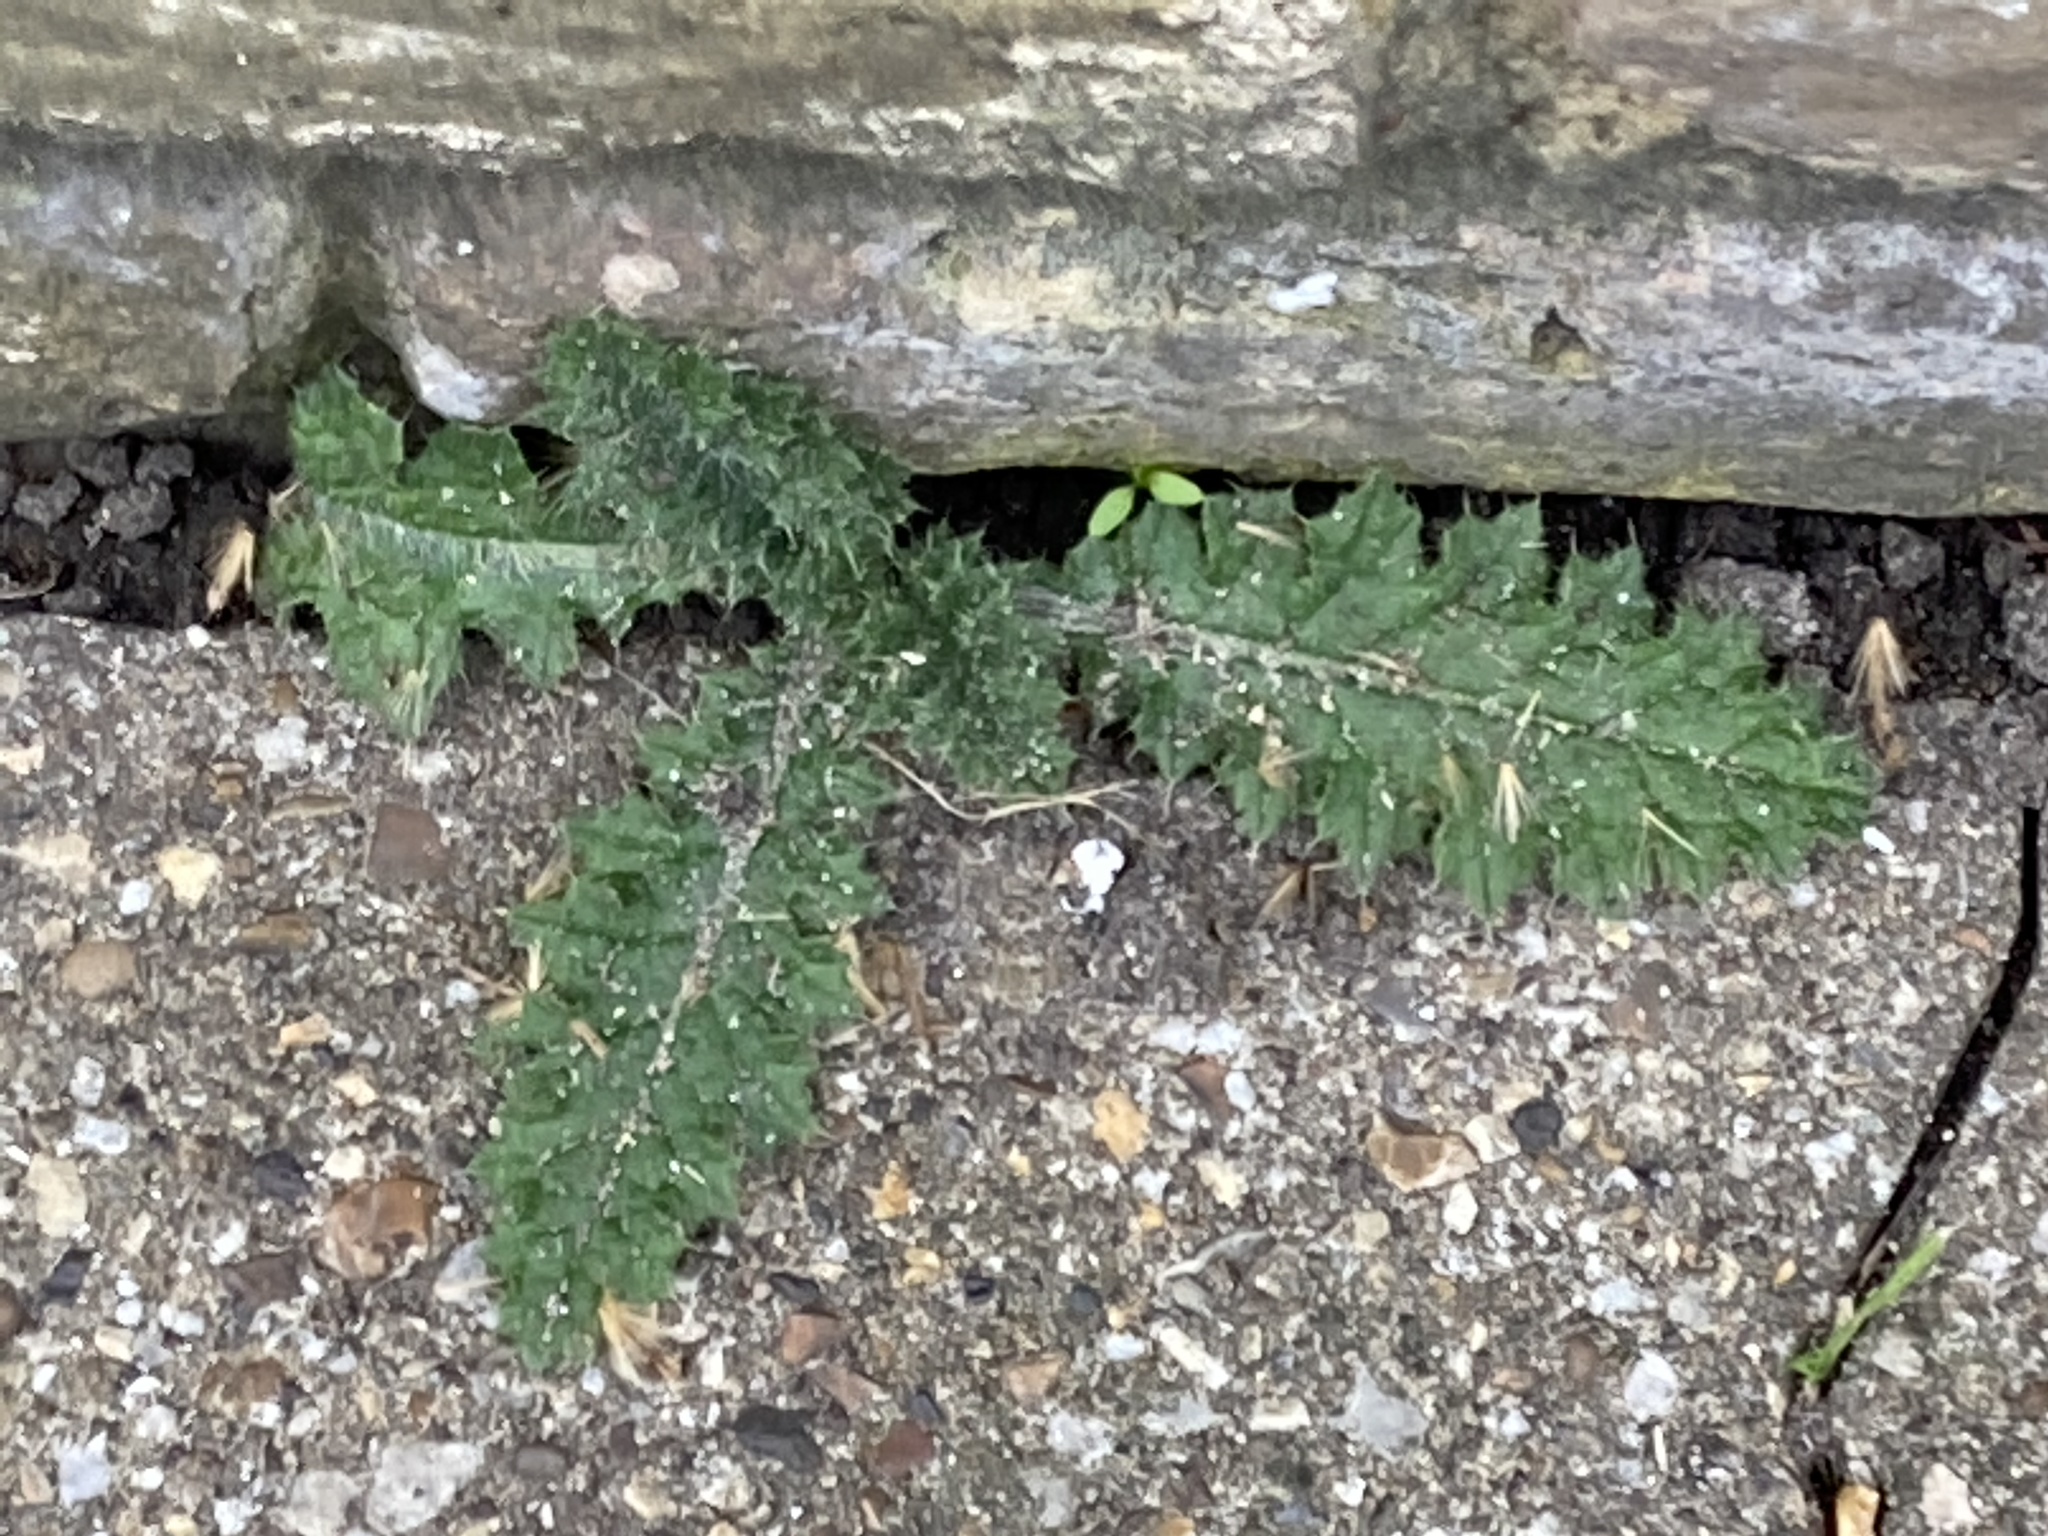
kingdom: Plantae
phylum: Tracheophyta
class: Magnoliopsida
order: Asterales
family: Asteraceae
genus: Cirsium
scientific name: Cirsium vulgare
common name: Bull thistle
